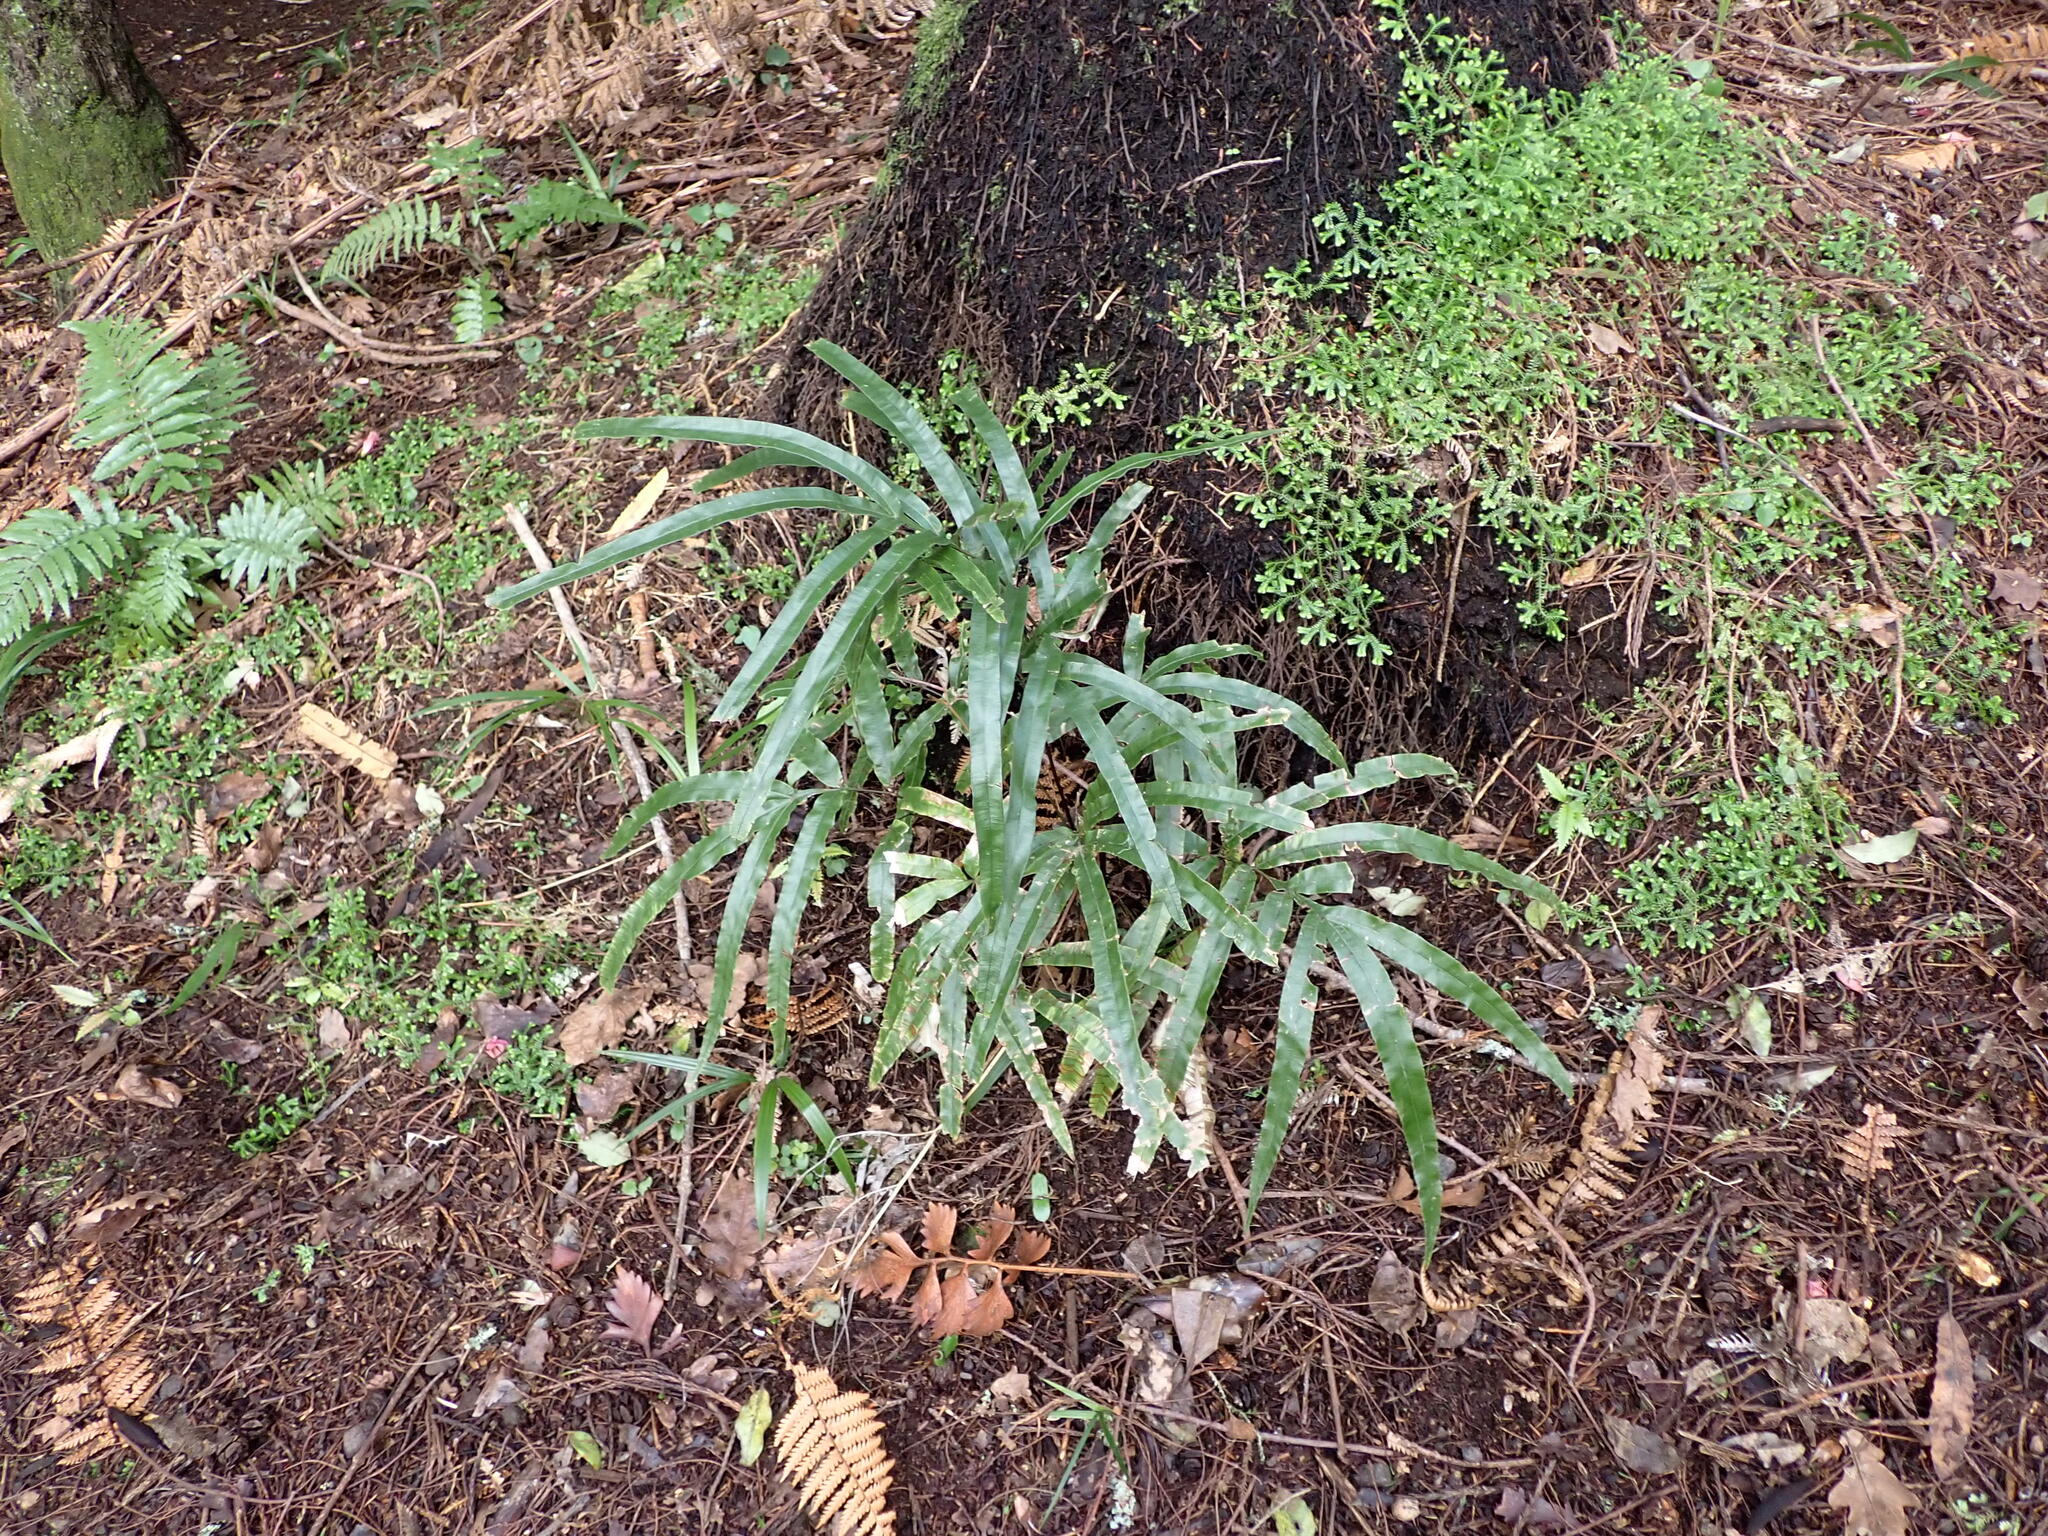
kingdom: Plantae
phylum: Tracheophyta
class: Polypodiopsida
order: Polypodiales
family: Pteridaceae
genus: Pteris
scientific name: Pteris cretica
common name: Ribbon fern
